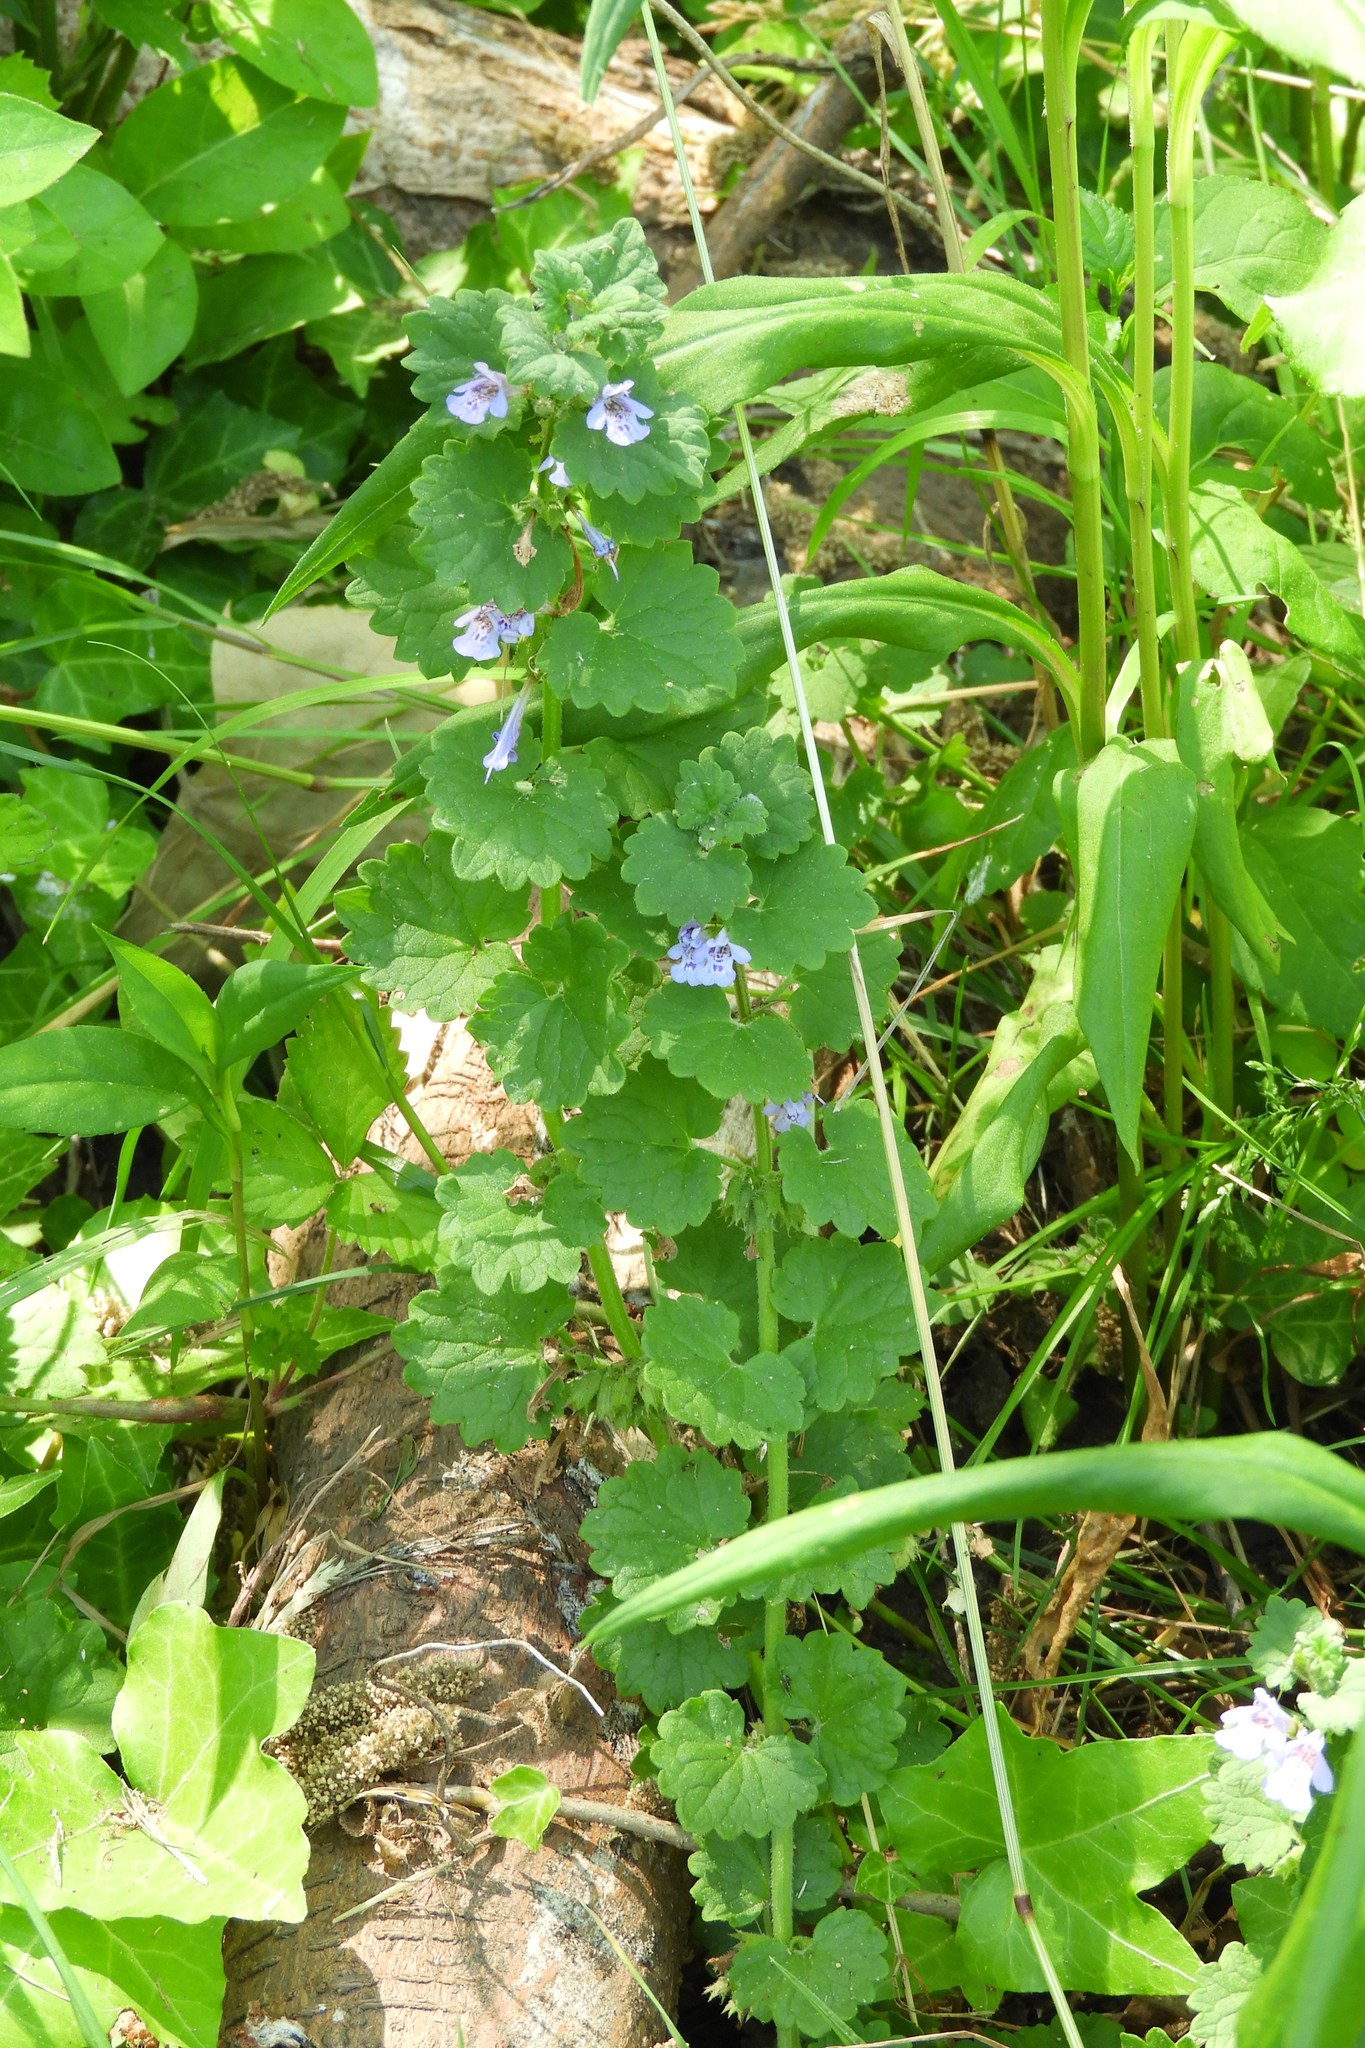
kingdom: Plantae
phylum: Tracheophyta
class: Magnoliopsida
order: Lamiales
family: Lamiaceae
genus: Glechoma
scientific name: Glechoma hederacea
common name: Ground ivy
